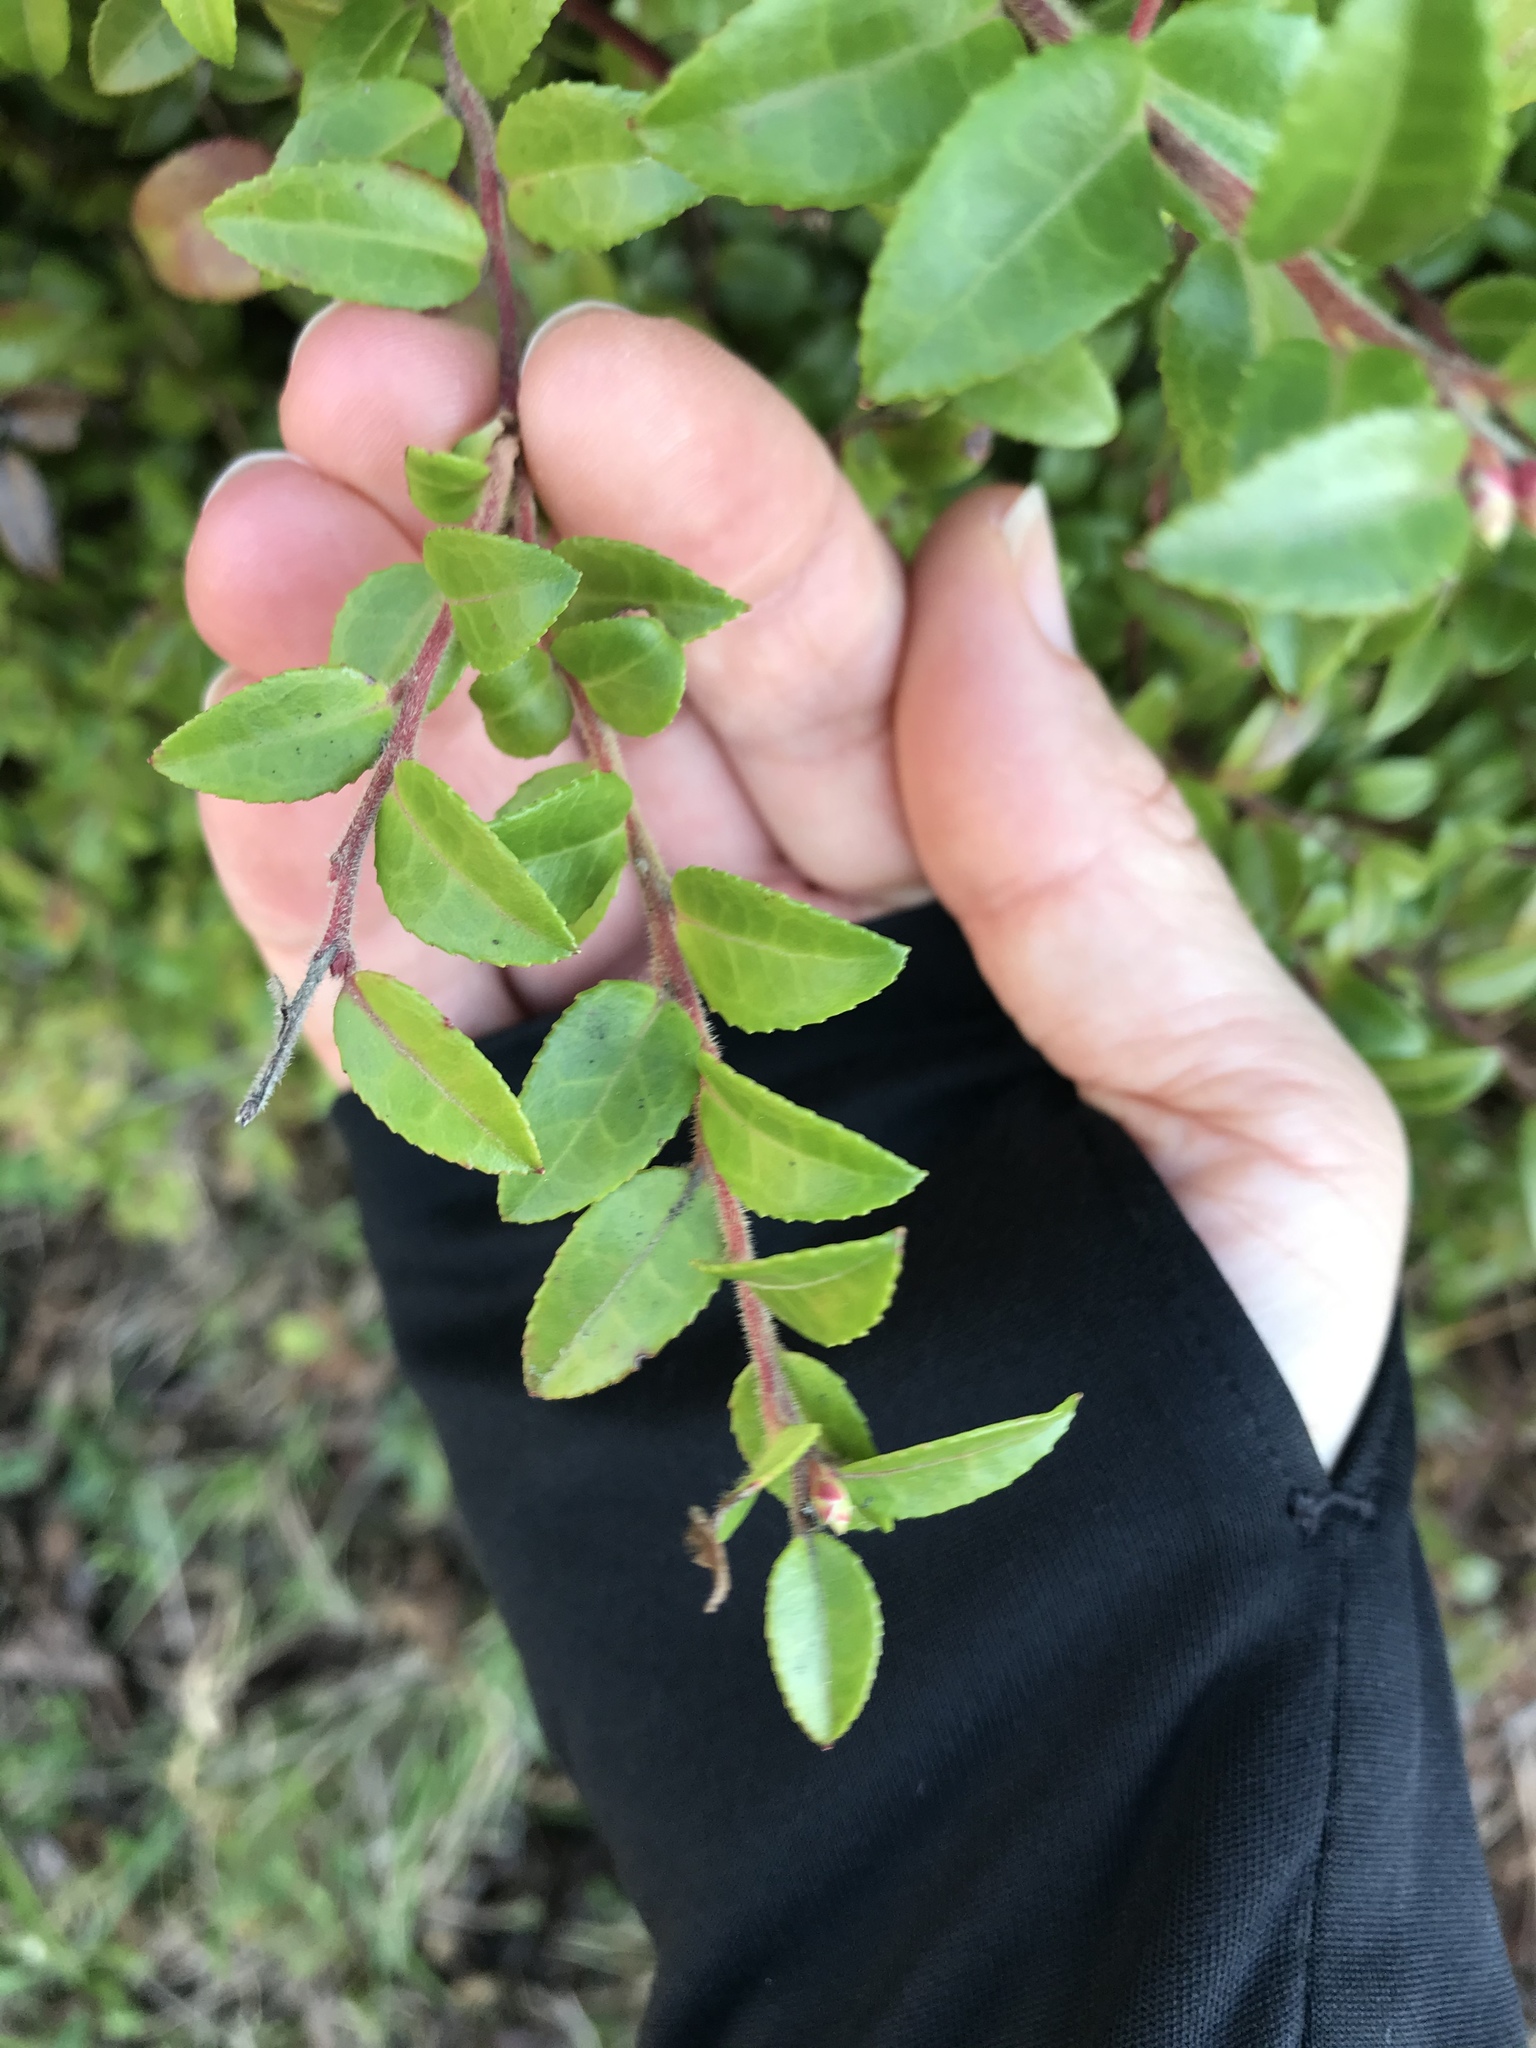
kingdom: Plantae
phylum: Tracheophyta
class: Magnoliopsida
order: Ericales
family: Ericaceae
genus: Vaccinium
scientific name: Vaccinium ovatum
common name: California-huckleberry
